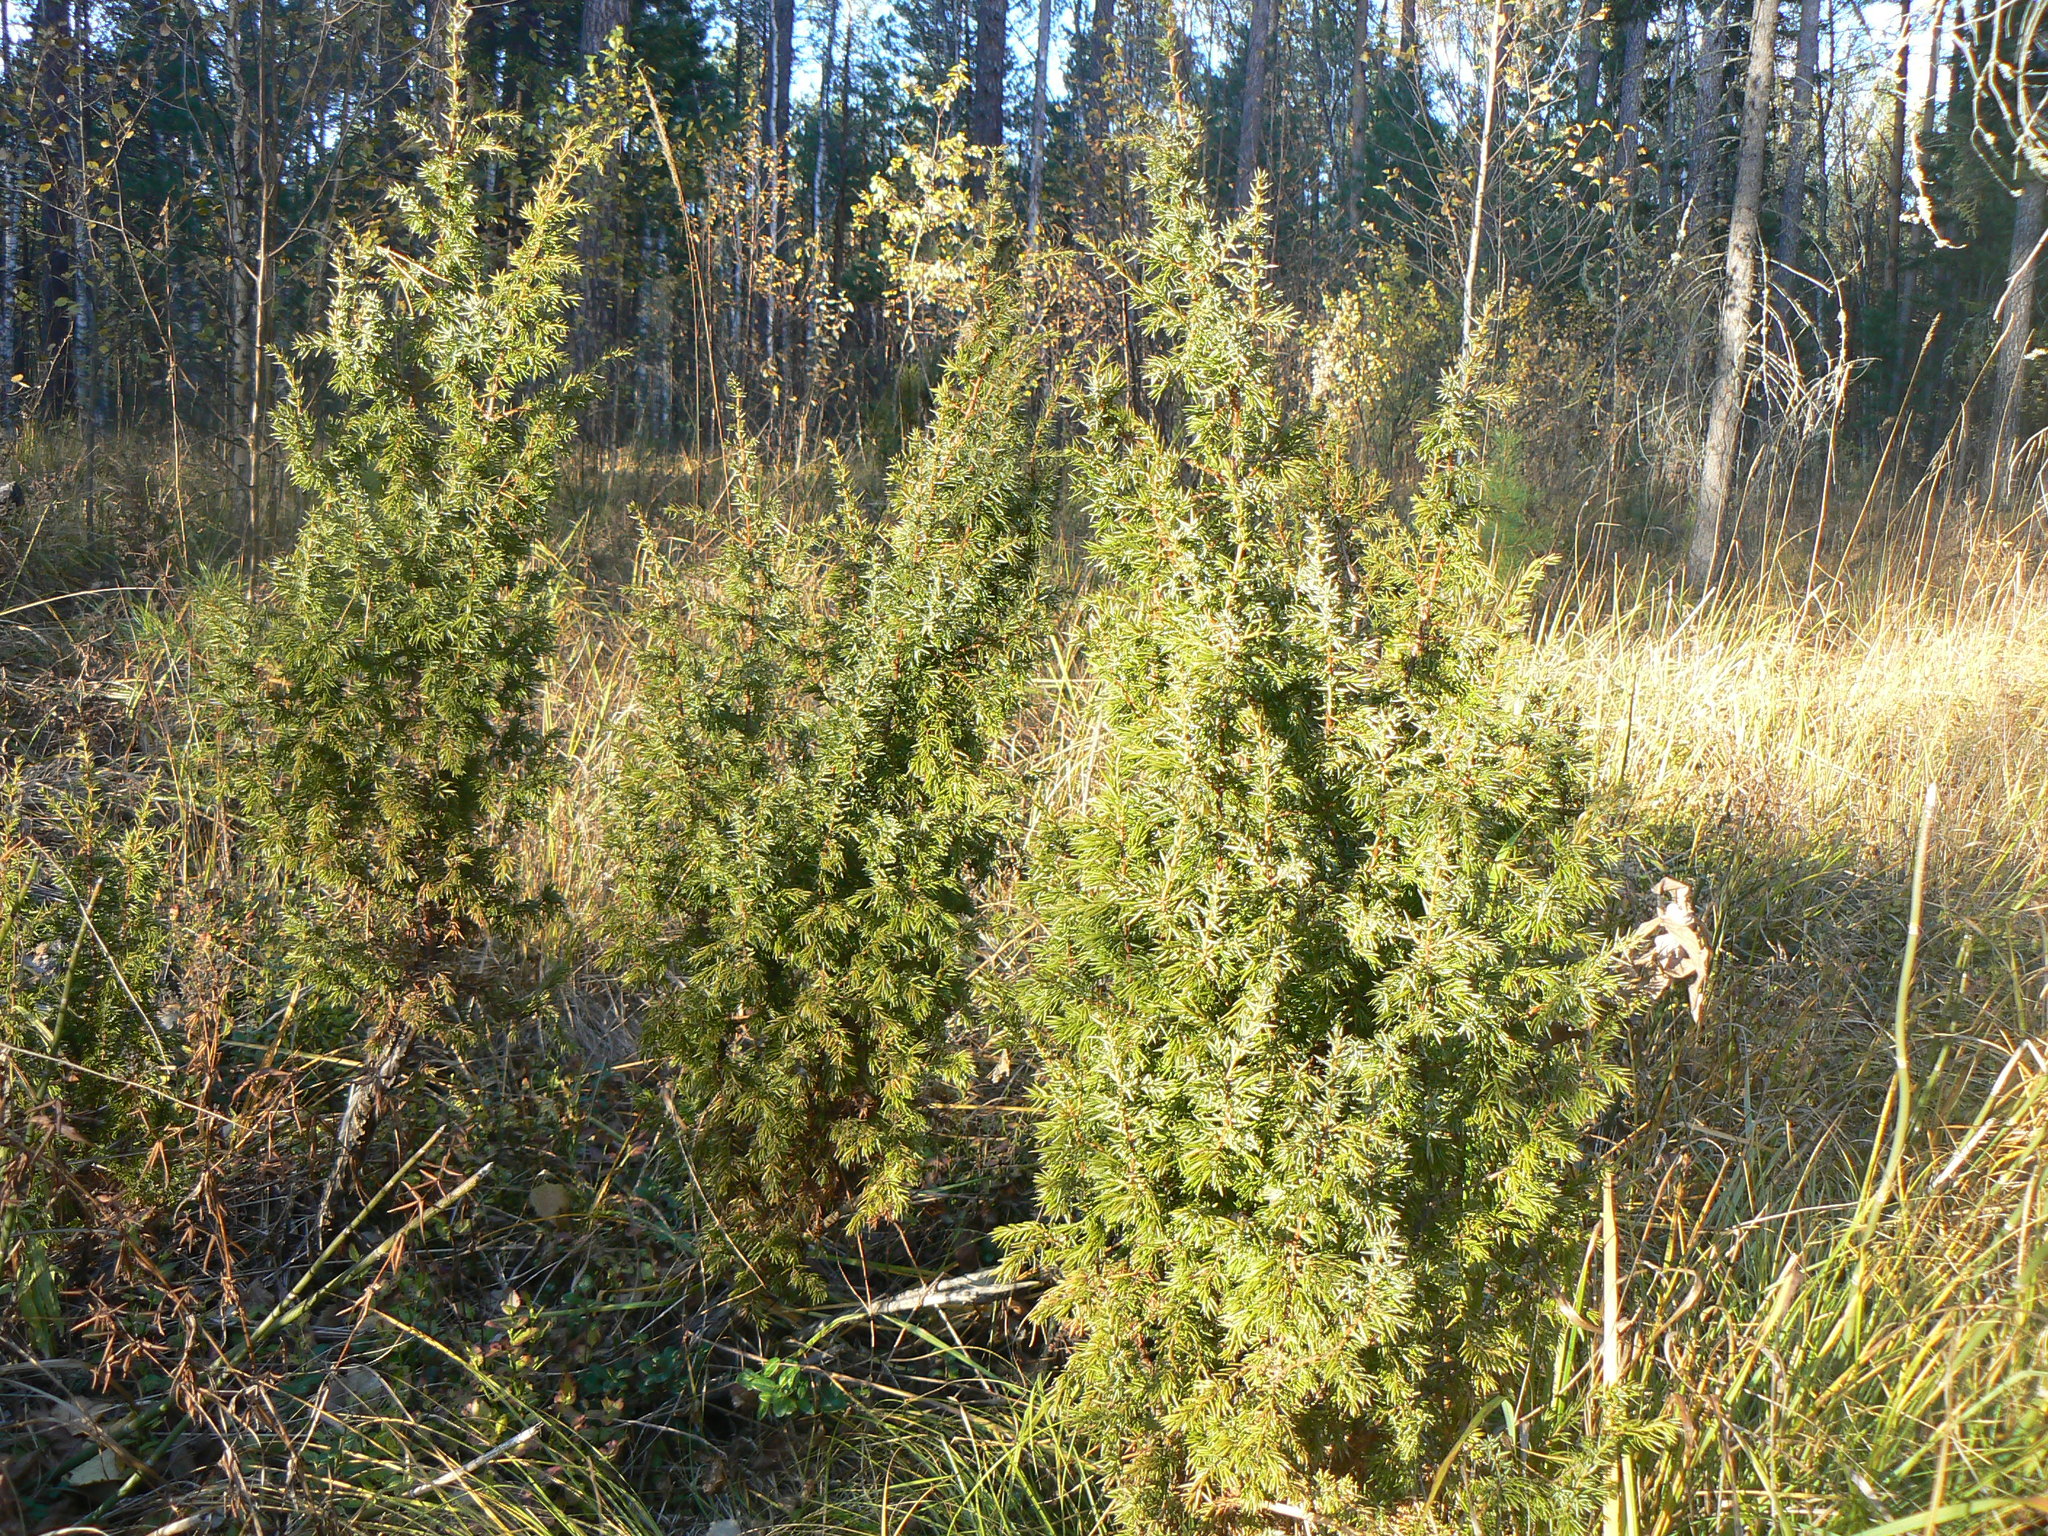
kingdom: Plantae
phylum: Tracheophyta
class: Pinopsida
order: Pinales
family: Cupressaceae
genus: Juniperus
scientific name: Juniperus communis
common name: Common juniper
